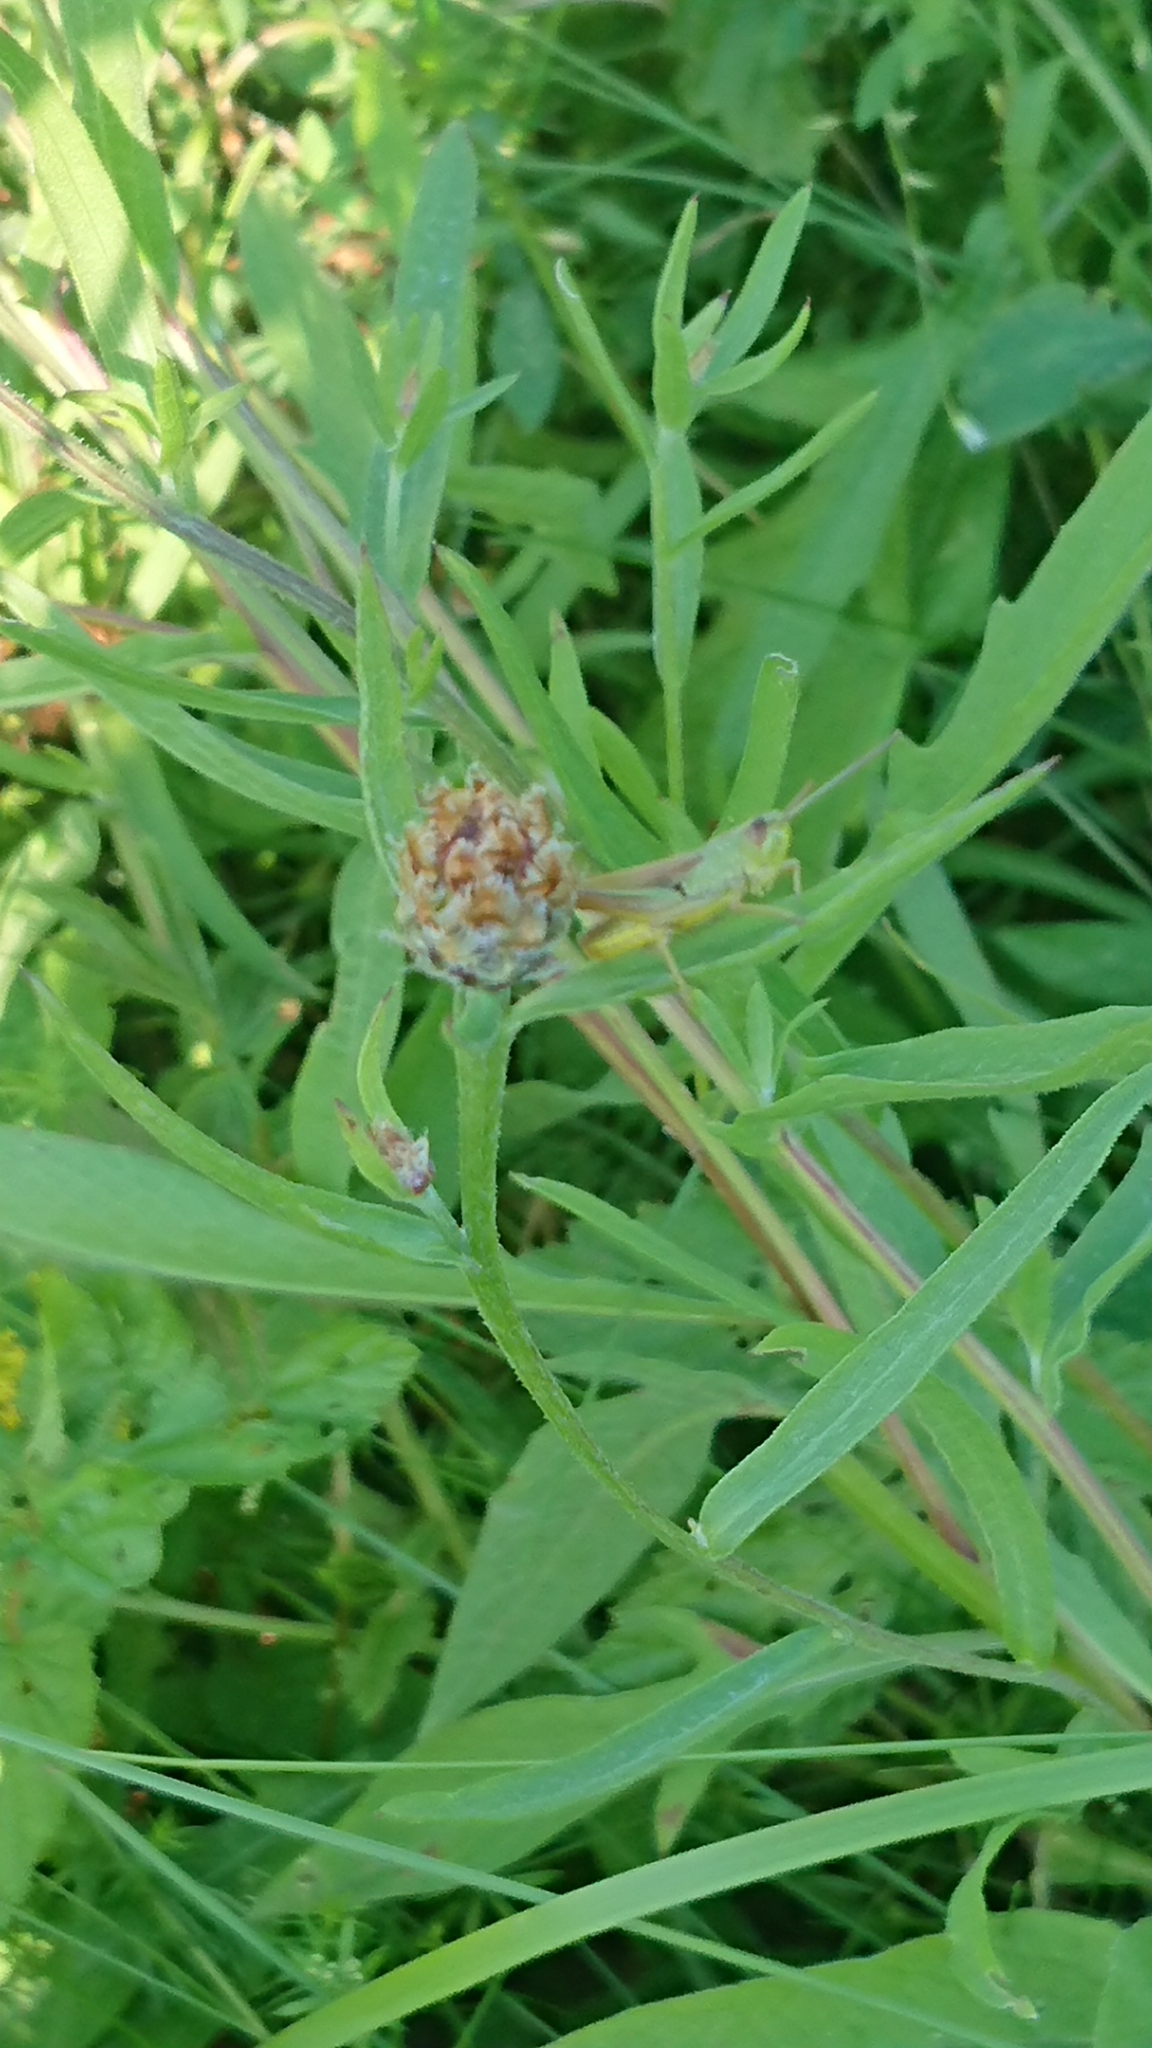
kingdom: Animalia
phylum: Arthropoda
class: Insecta
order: Orthoptera
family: Acrididae
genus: Pseudochorthippus
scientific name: Pseudochorthippus parallelus
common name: Meadow grasshopper
